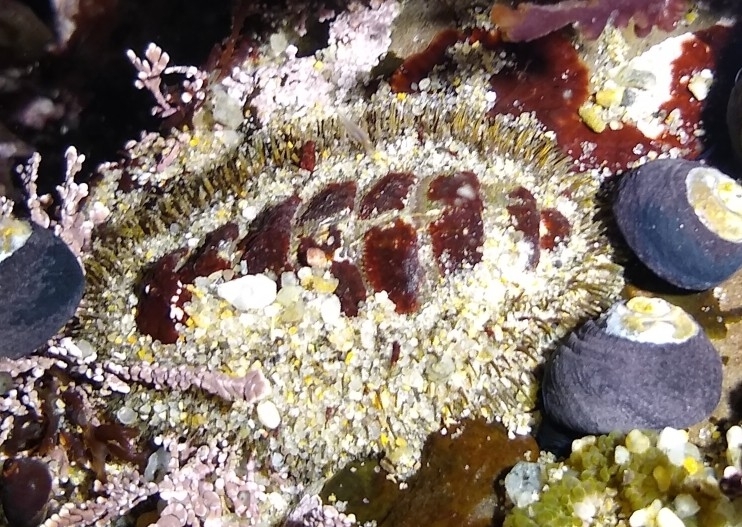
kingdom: Animalia
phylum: Mollusca
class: Polyplacophora
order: Chitonida
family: Mopaliidae
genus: Mopalia
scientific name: Mopalia muscosa
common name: Mossy chiton
